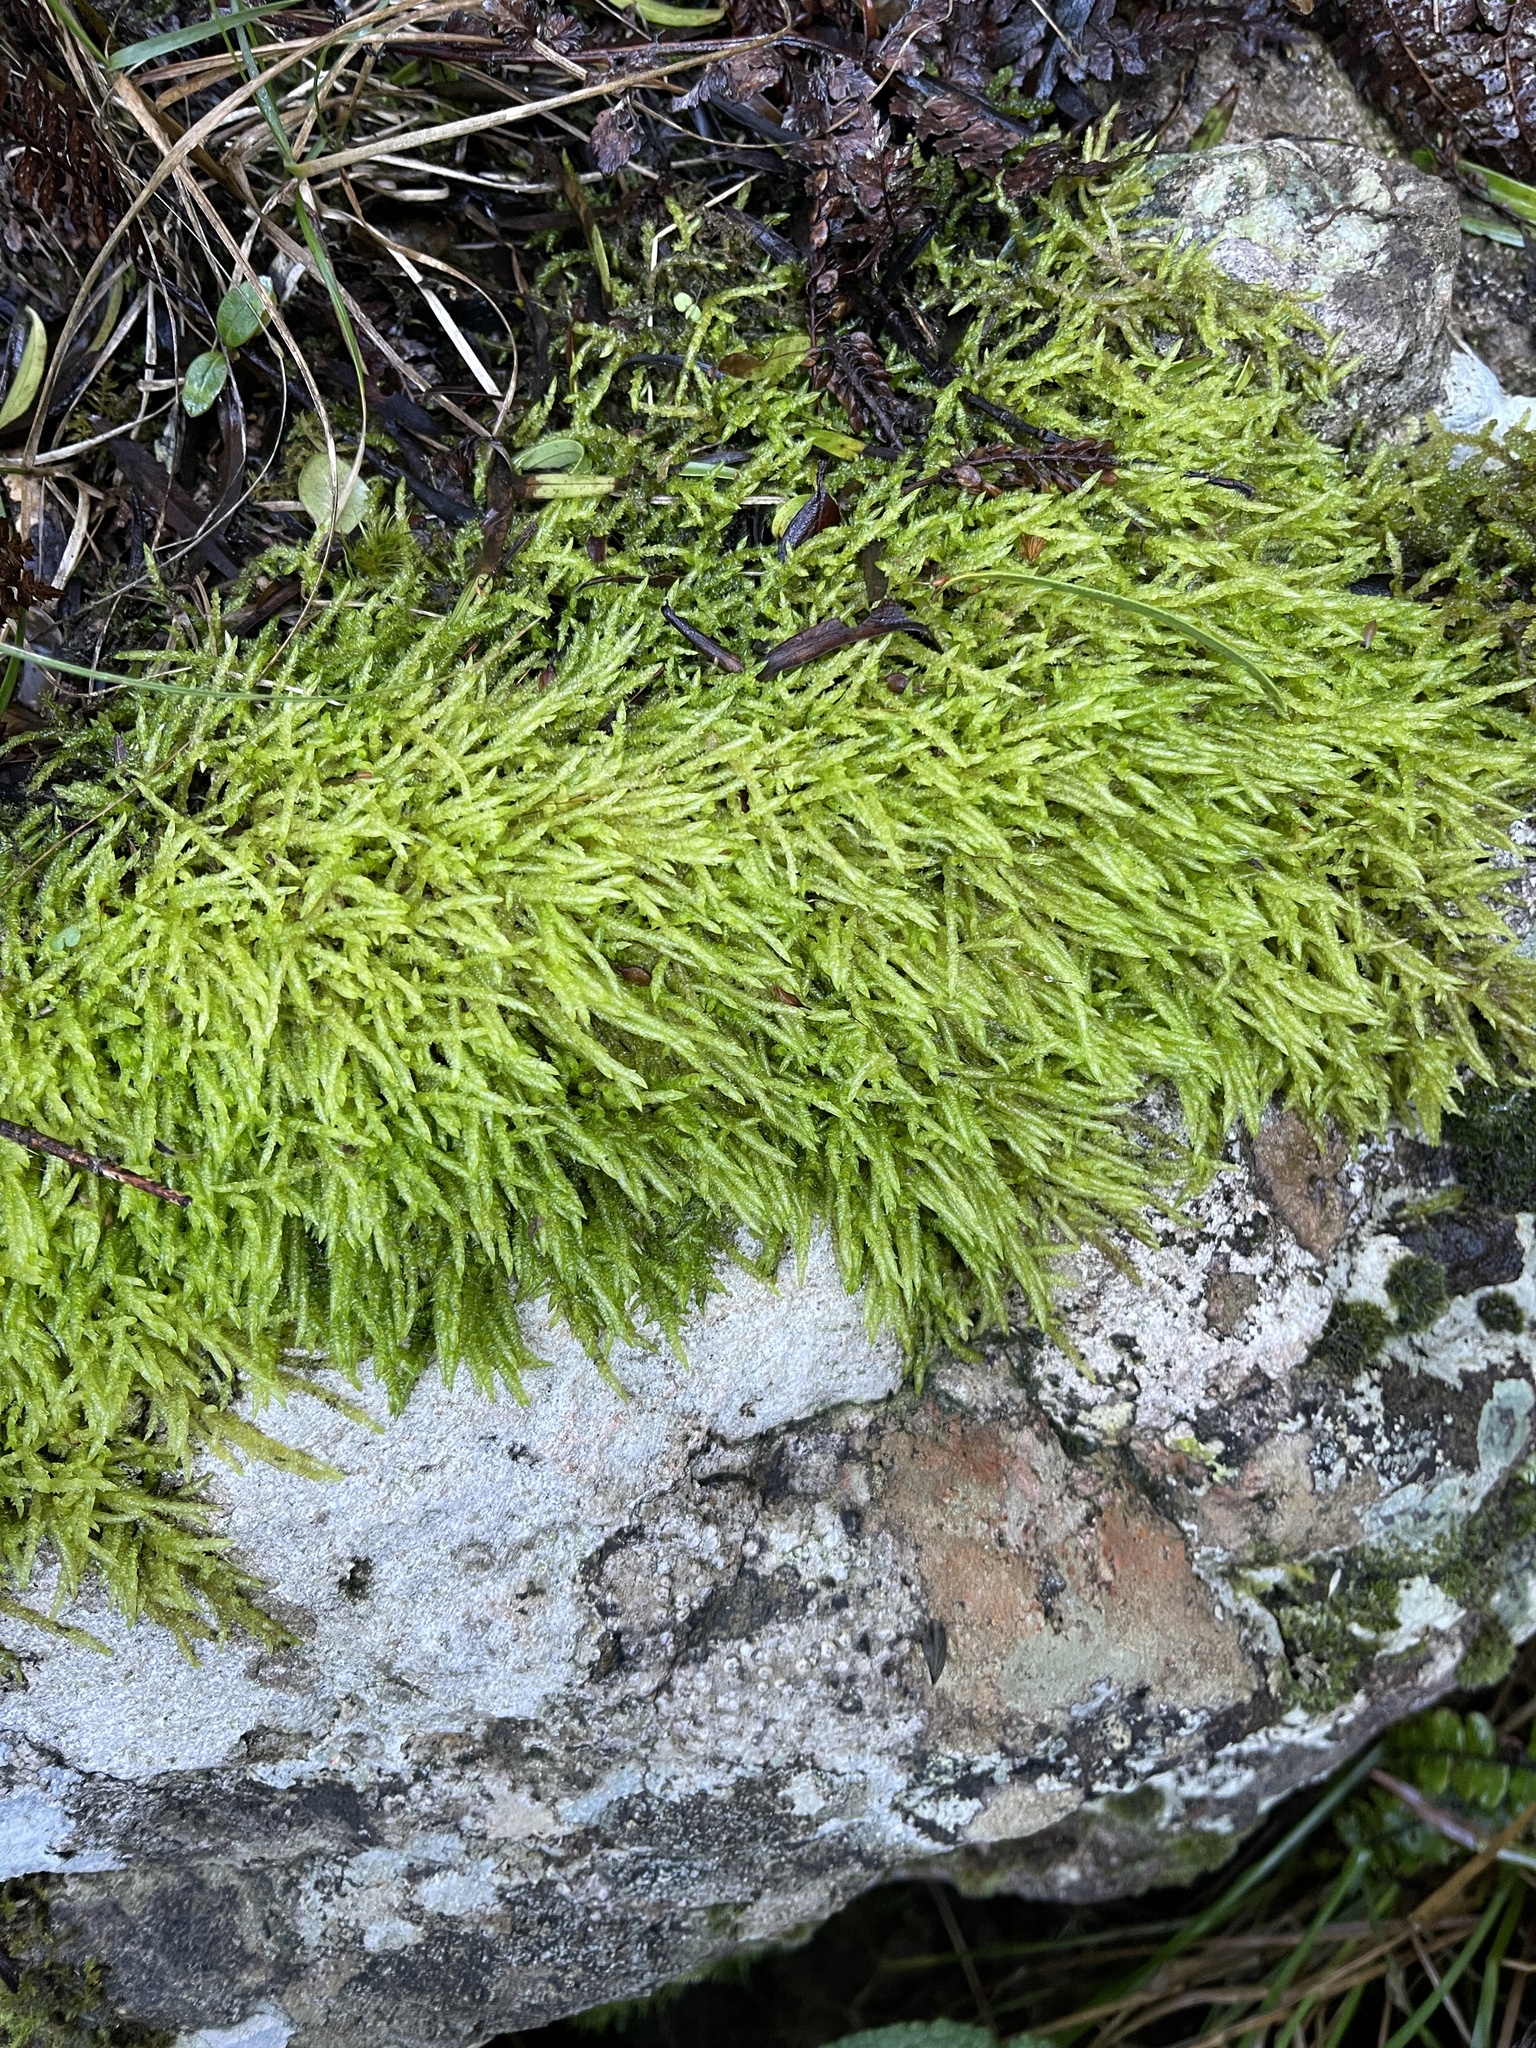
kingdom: Plantae
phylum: Bryophyta
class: Bryopsida
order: Hypnales
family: Acrocladiaceae
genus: Acrocladium
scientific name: Acrocladium chlamydophyllum
